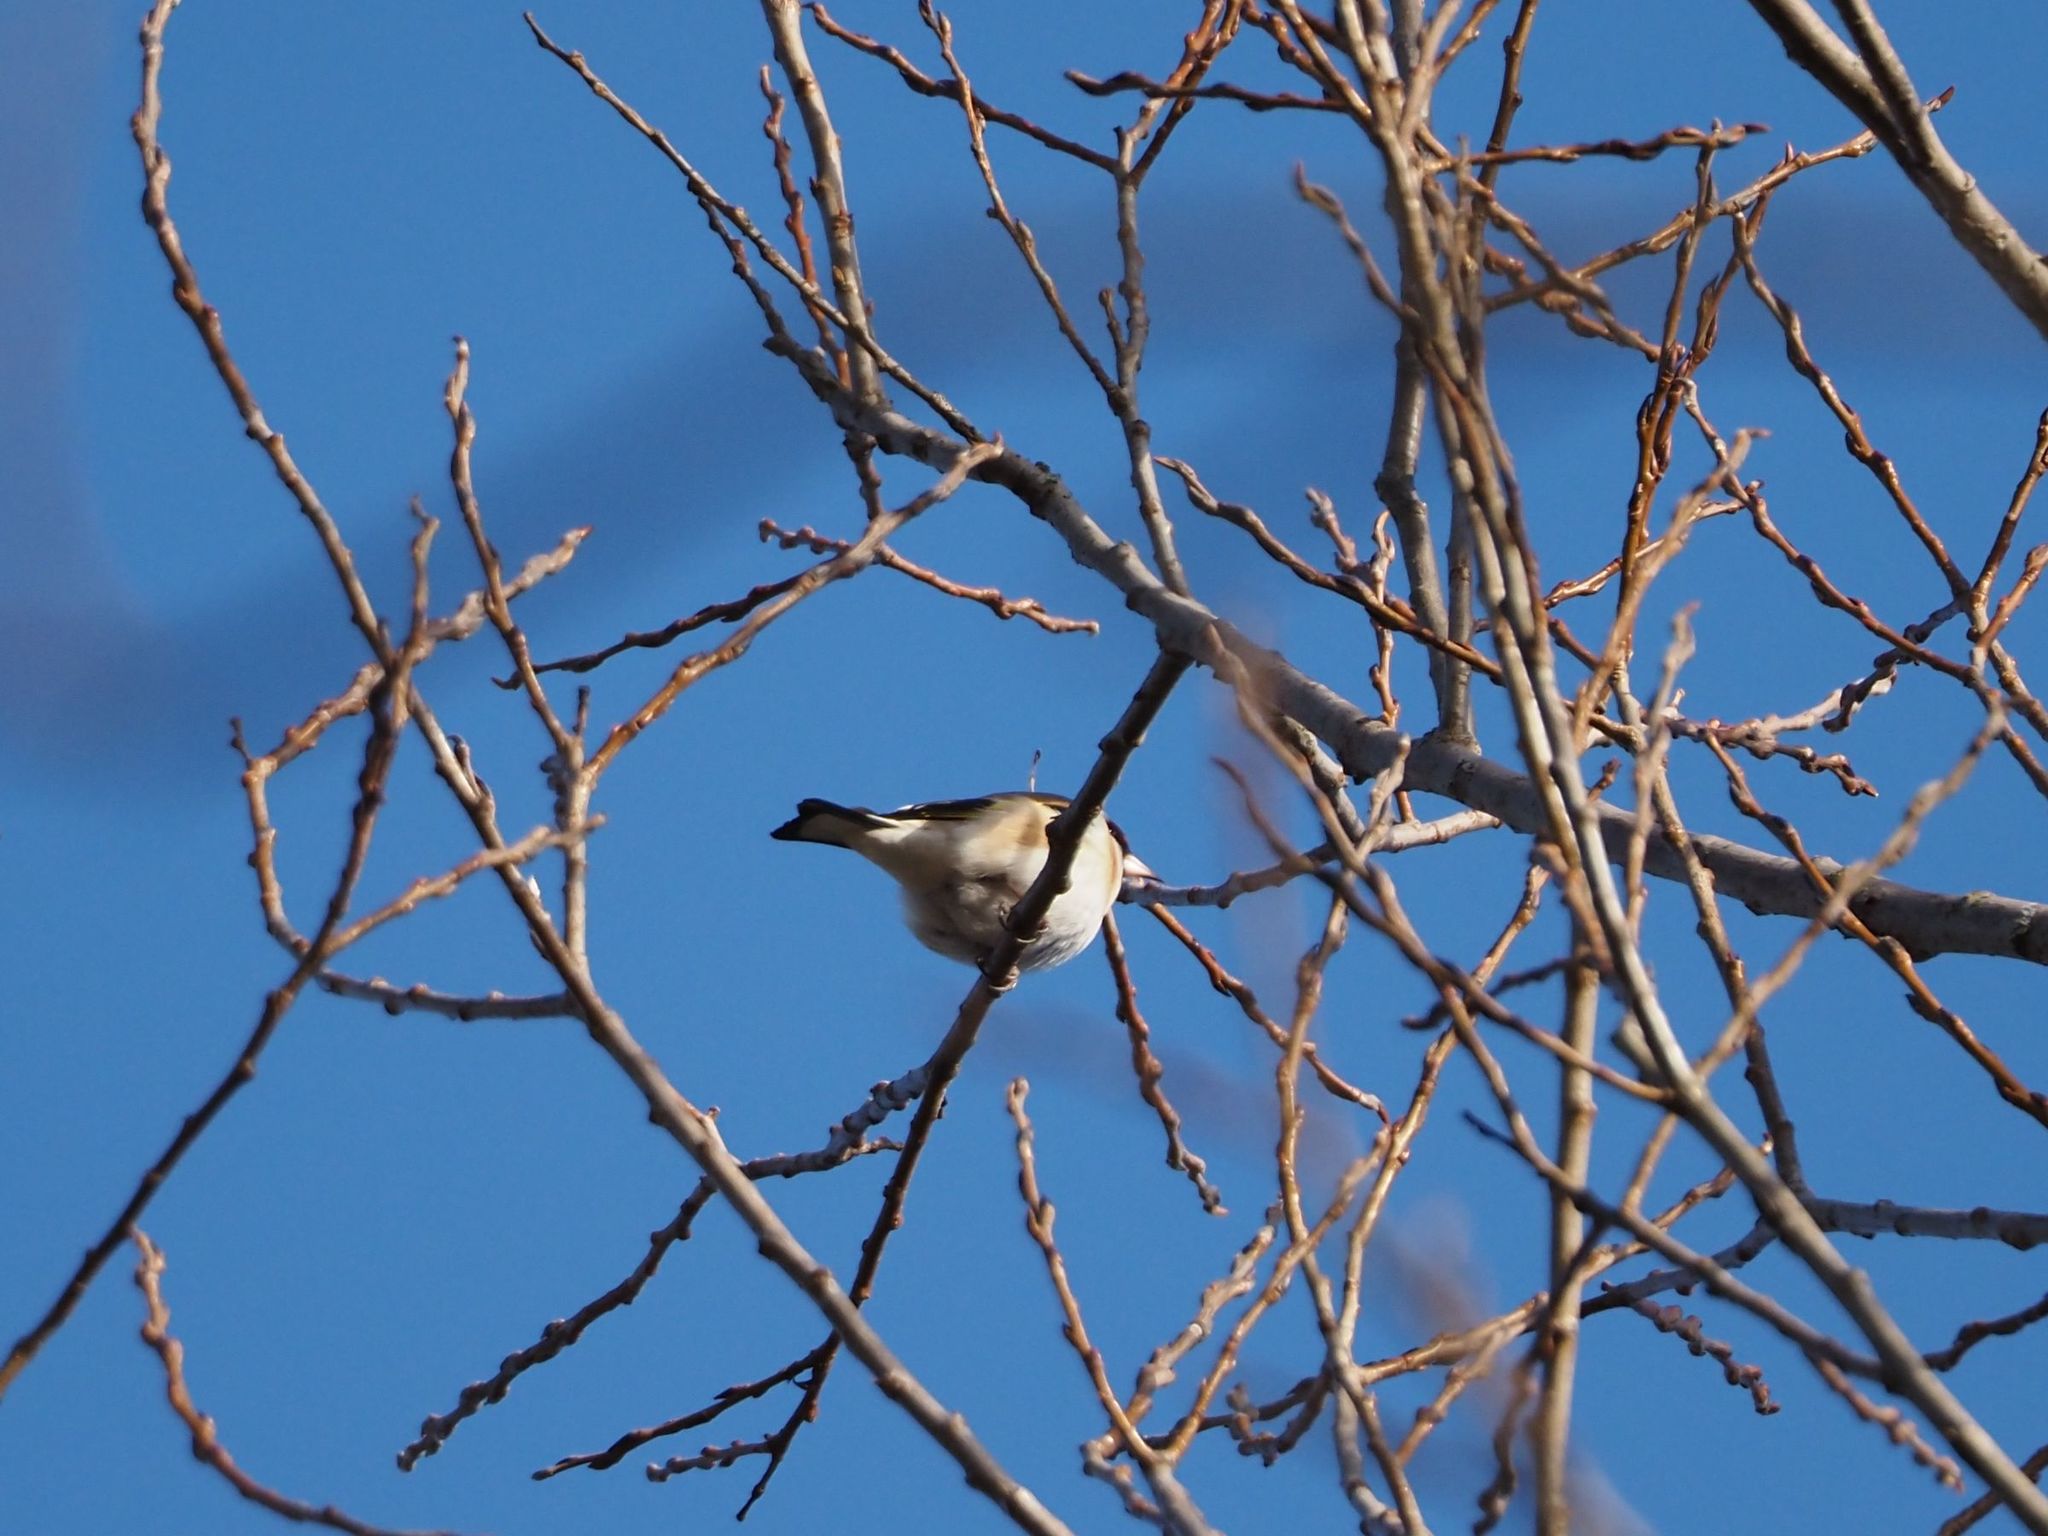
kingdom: Animalia
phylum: Chordata
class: Aves
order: Passeriformes
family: Fringillidae
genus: Carduelis
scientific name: Carduelis carduelis
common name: European goldfinch
